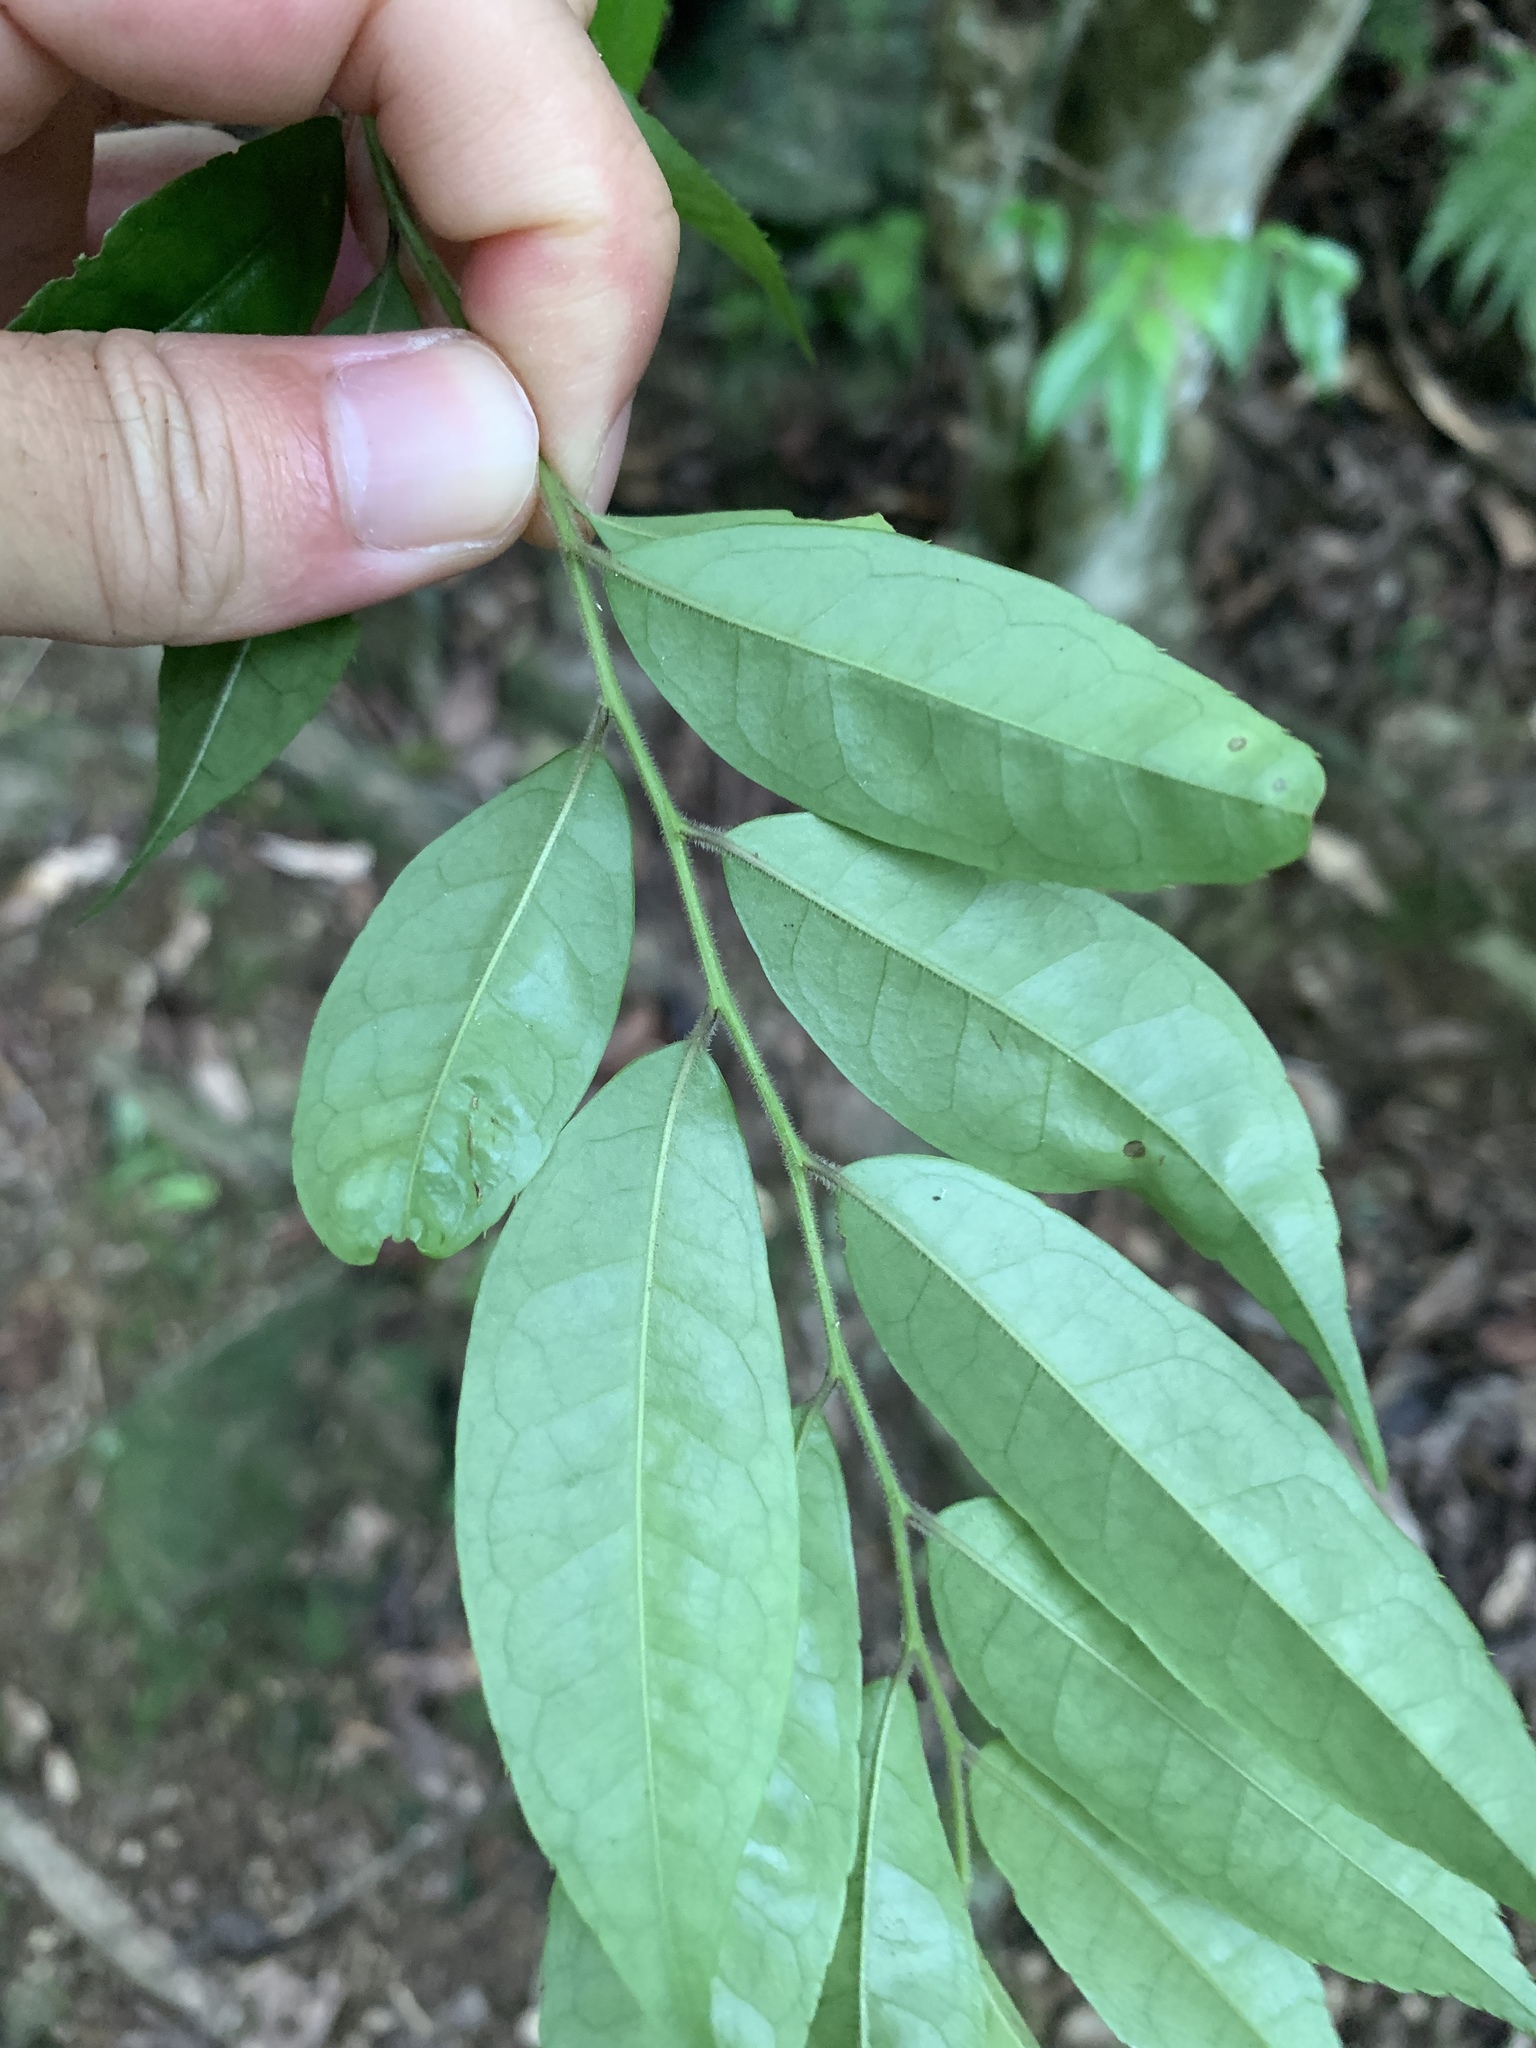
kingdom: Plantae
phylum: Tracheophyta
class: Magnoliopsida
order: Aquifoliales
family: Aquifoliaceae
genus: Ilex
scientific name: Ilex pubescens
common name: Pubescent holly
